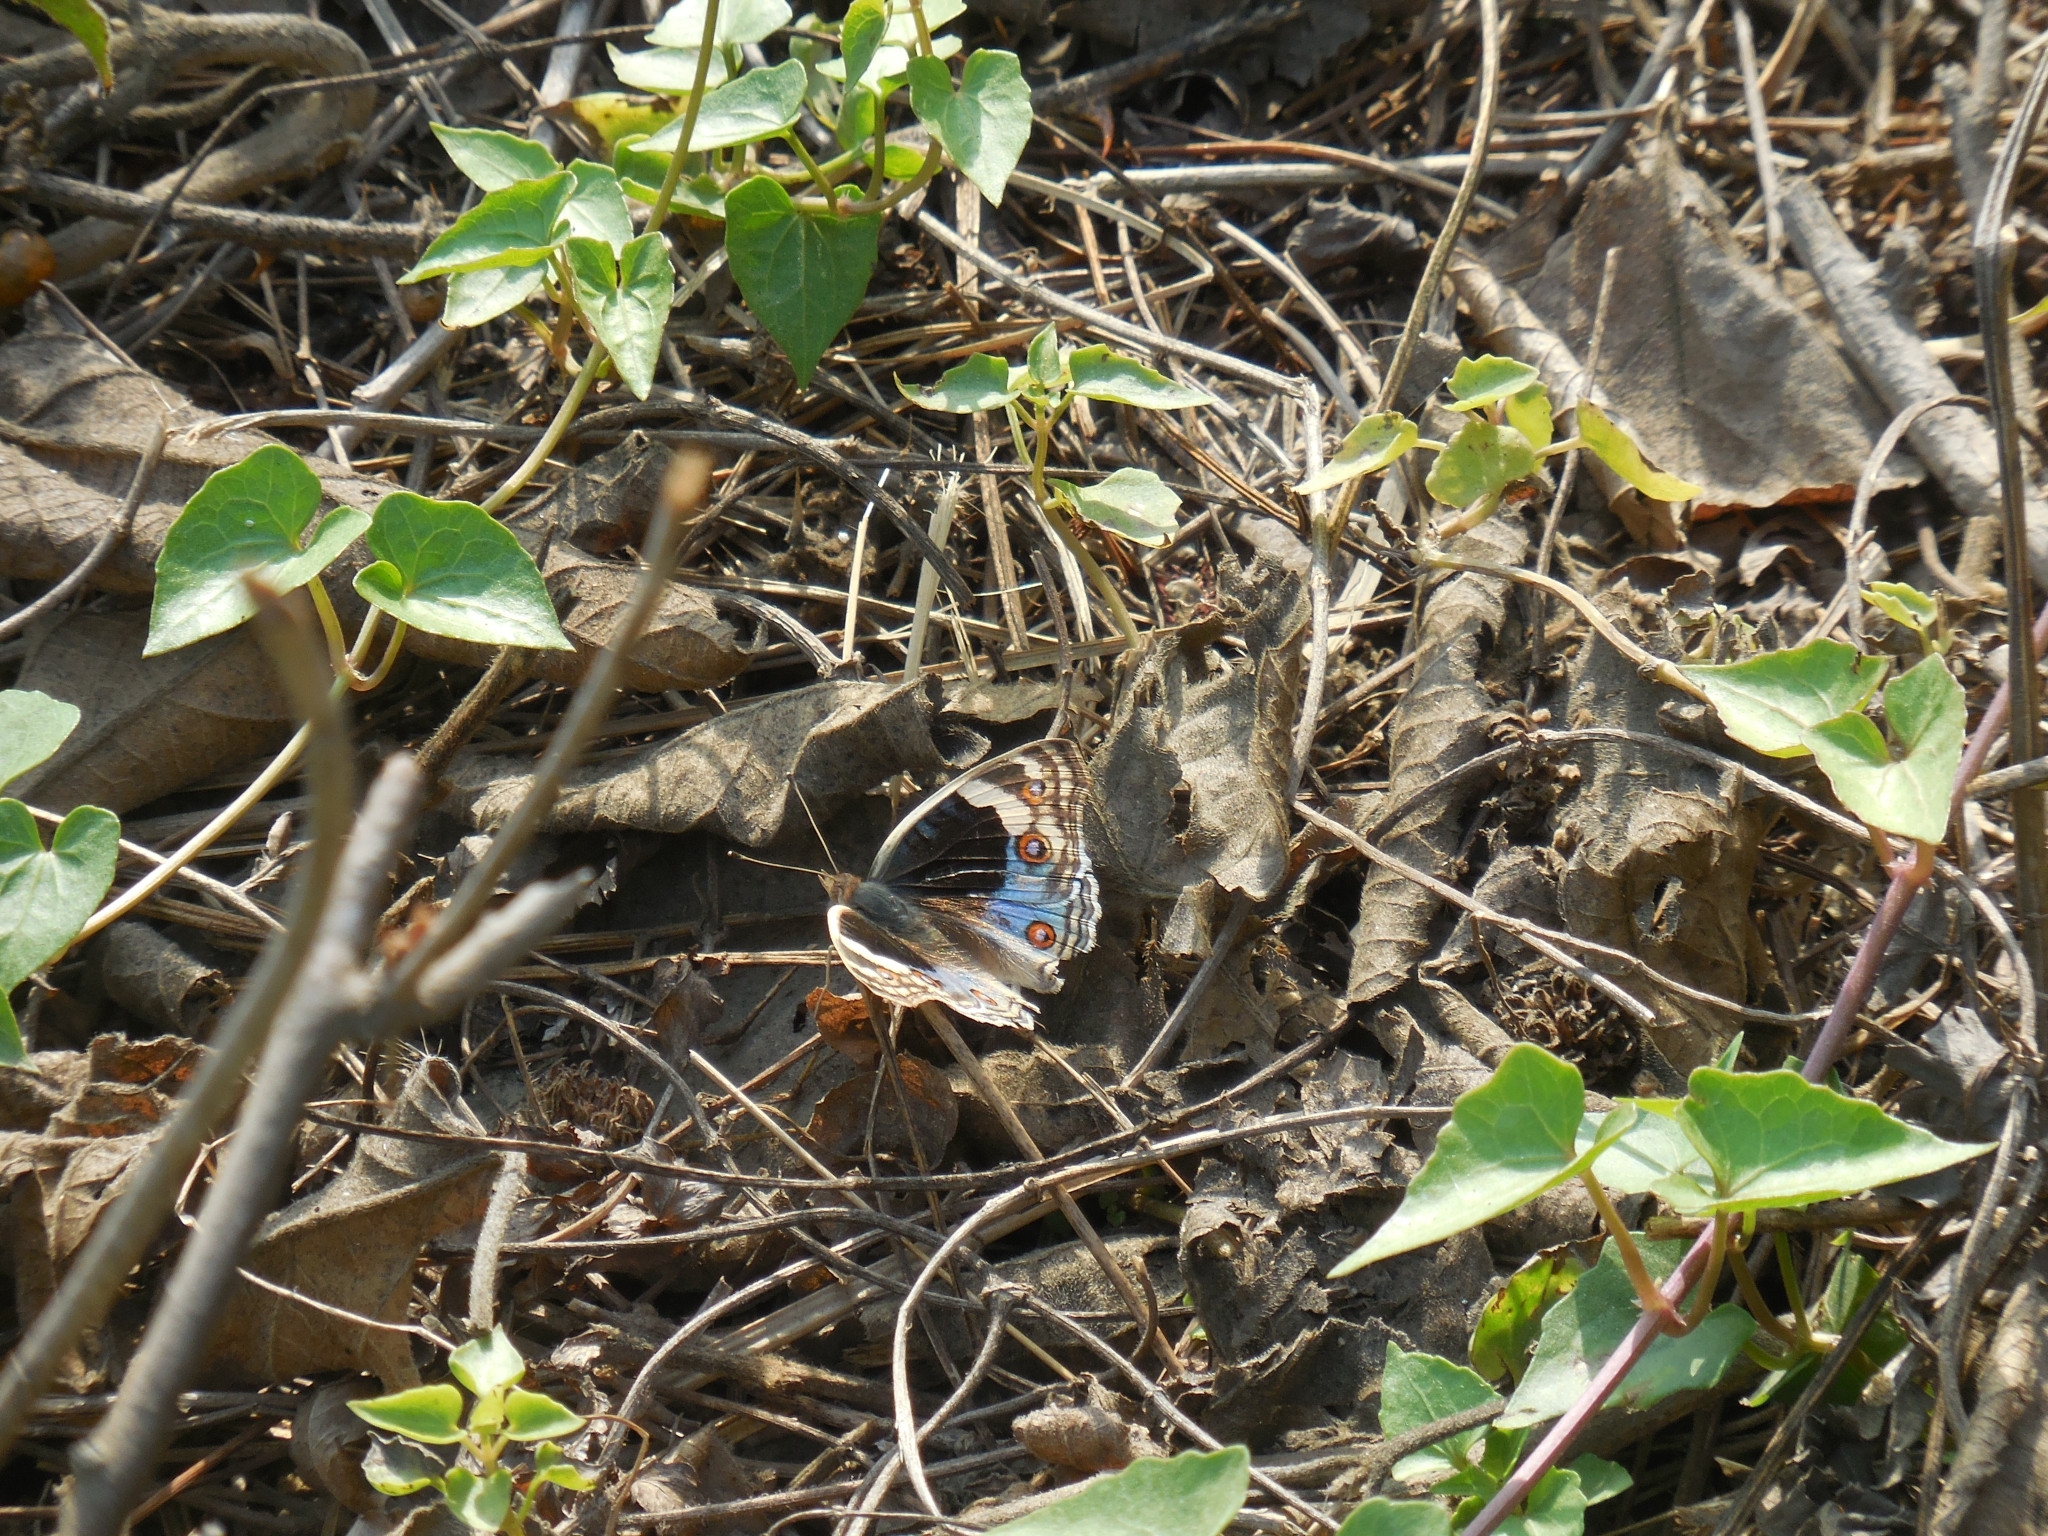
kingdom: Animalia
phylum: Arthropoda
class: Insecta
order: Lepidoptera
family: Nymphalidae
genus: Junonia
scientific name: Junonia orithya
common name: Blue pansy
